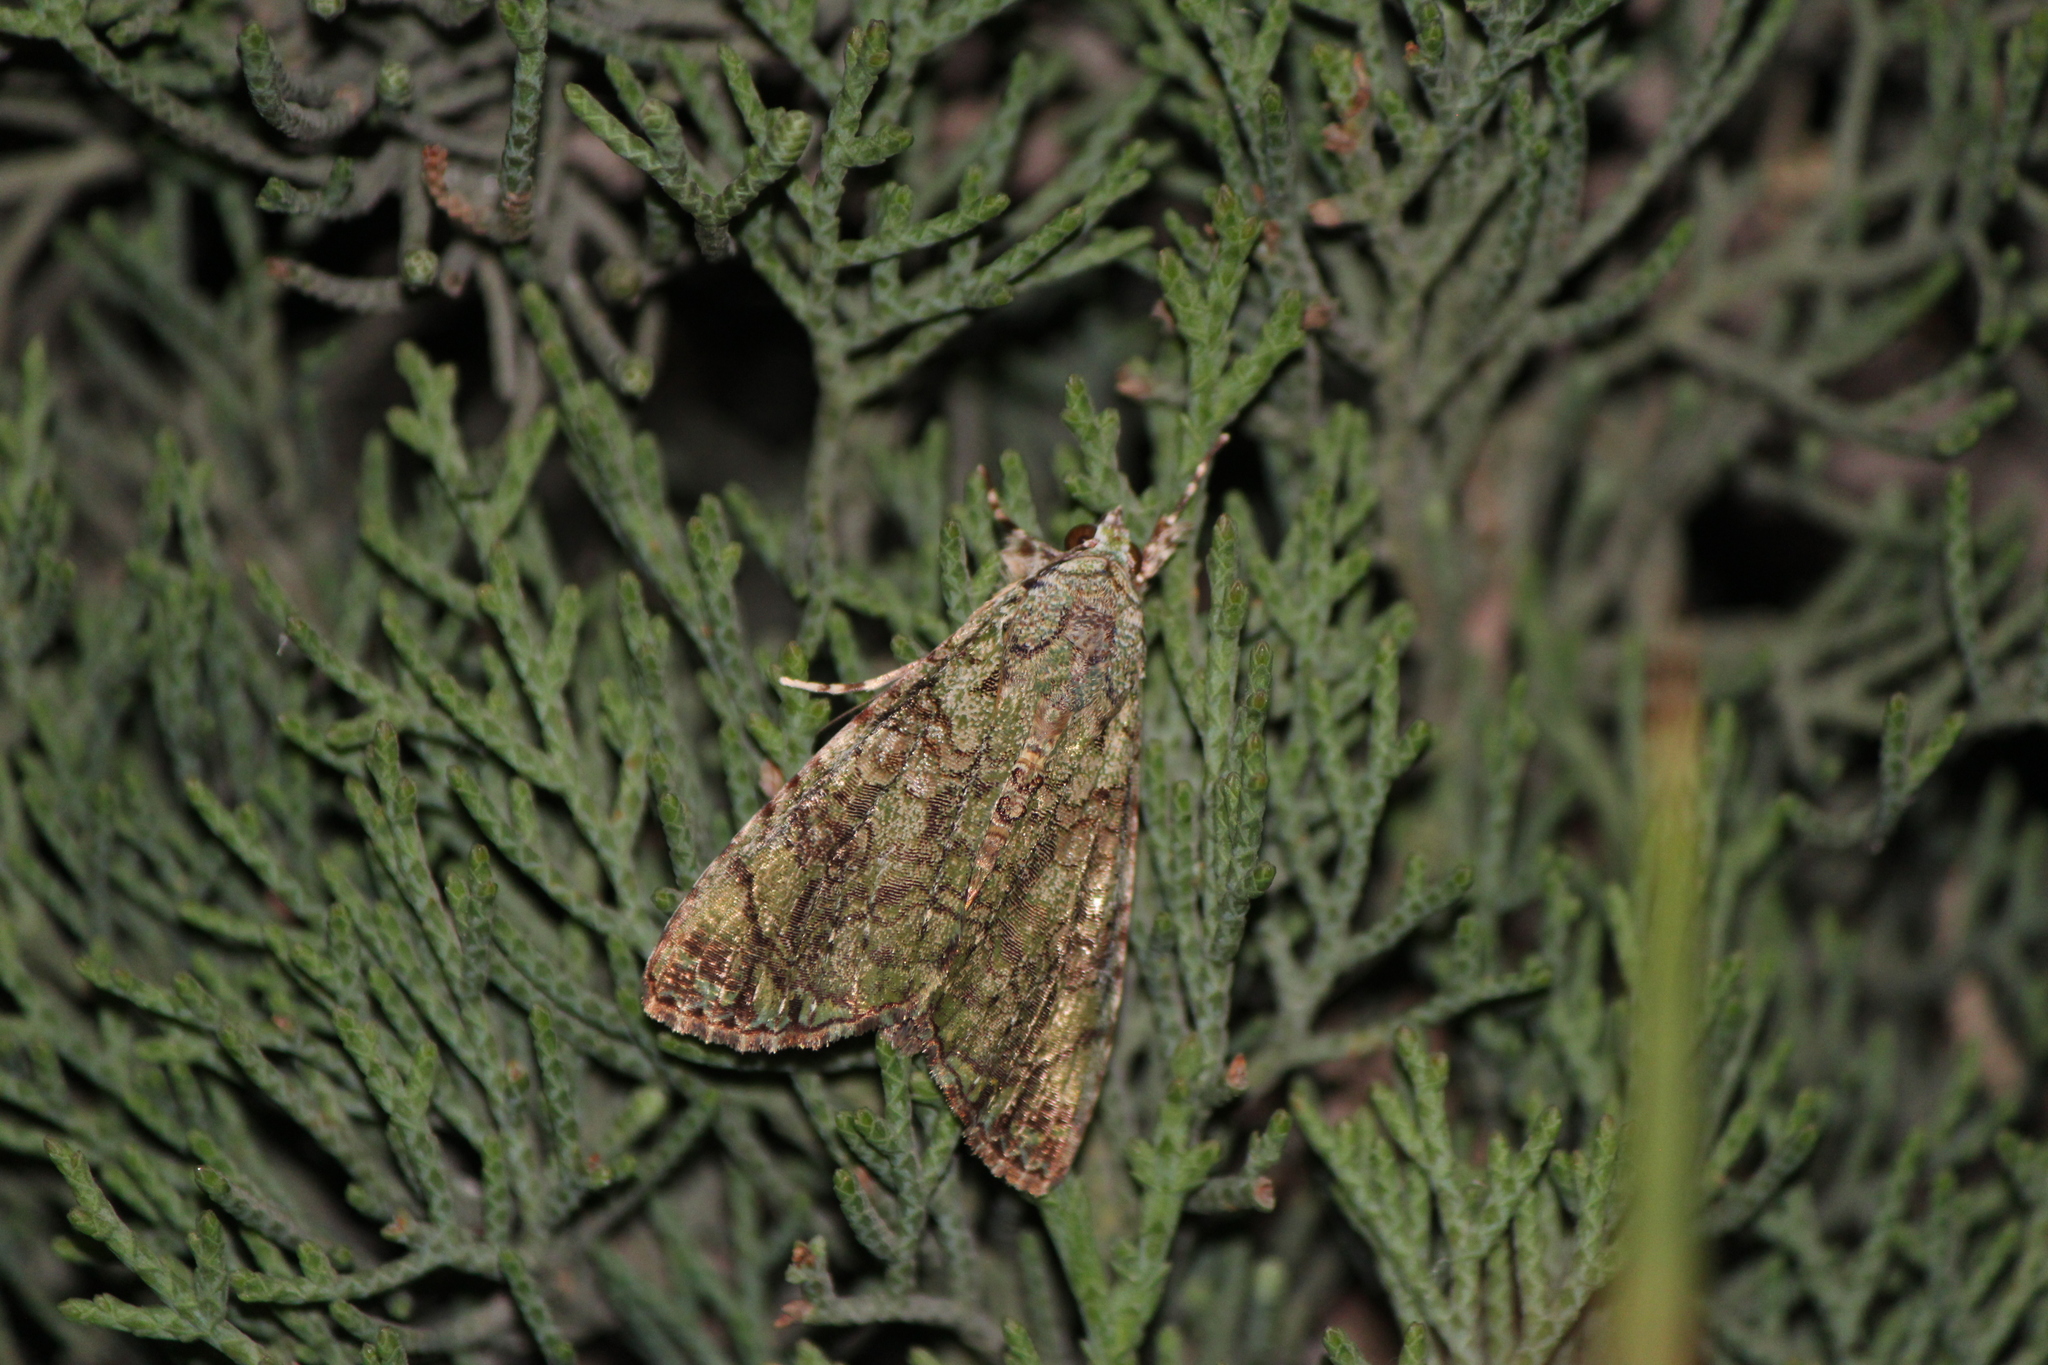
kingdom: Animalia
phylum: Arthropoda
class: Insecta
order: Lepidoptera
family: Noctuidae
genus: Neophaenis
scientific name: Neophaenis boucheri
